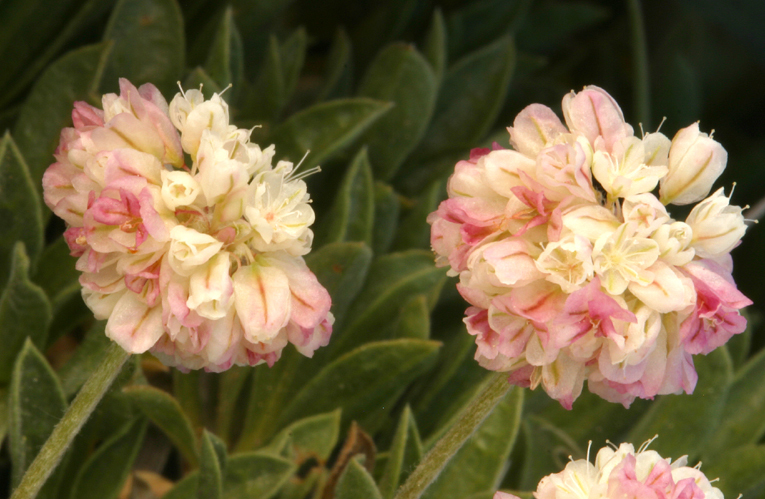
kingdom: Plantae
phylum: Tracheophyta
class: Magnoliopsida
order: Caryophyllales
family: Polygonaceae
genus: Eriogonum
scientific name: Eriogonum ovalifolium
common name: Cushion buckwheat
